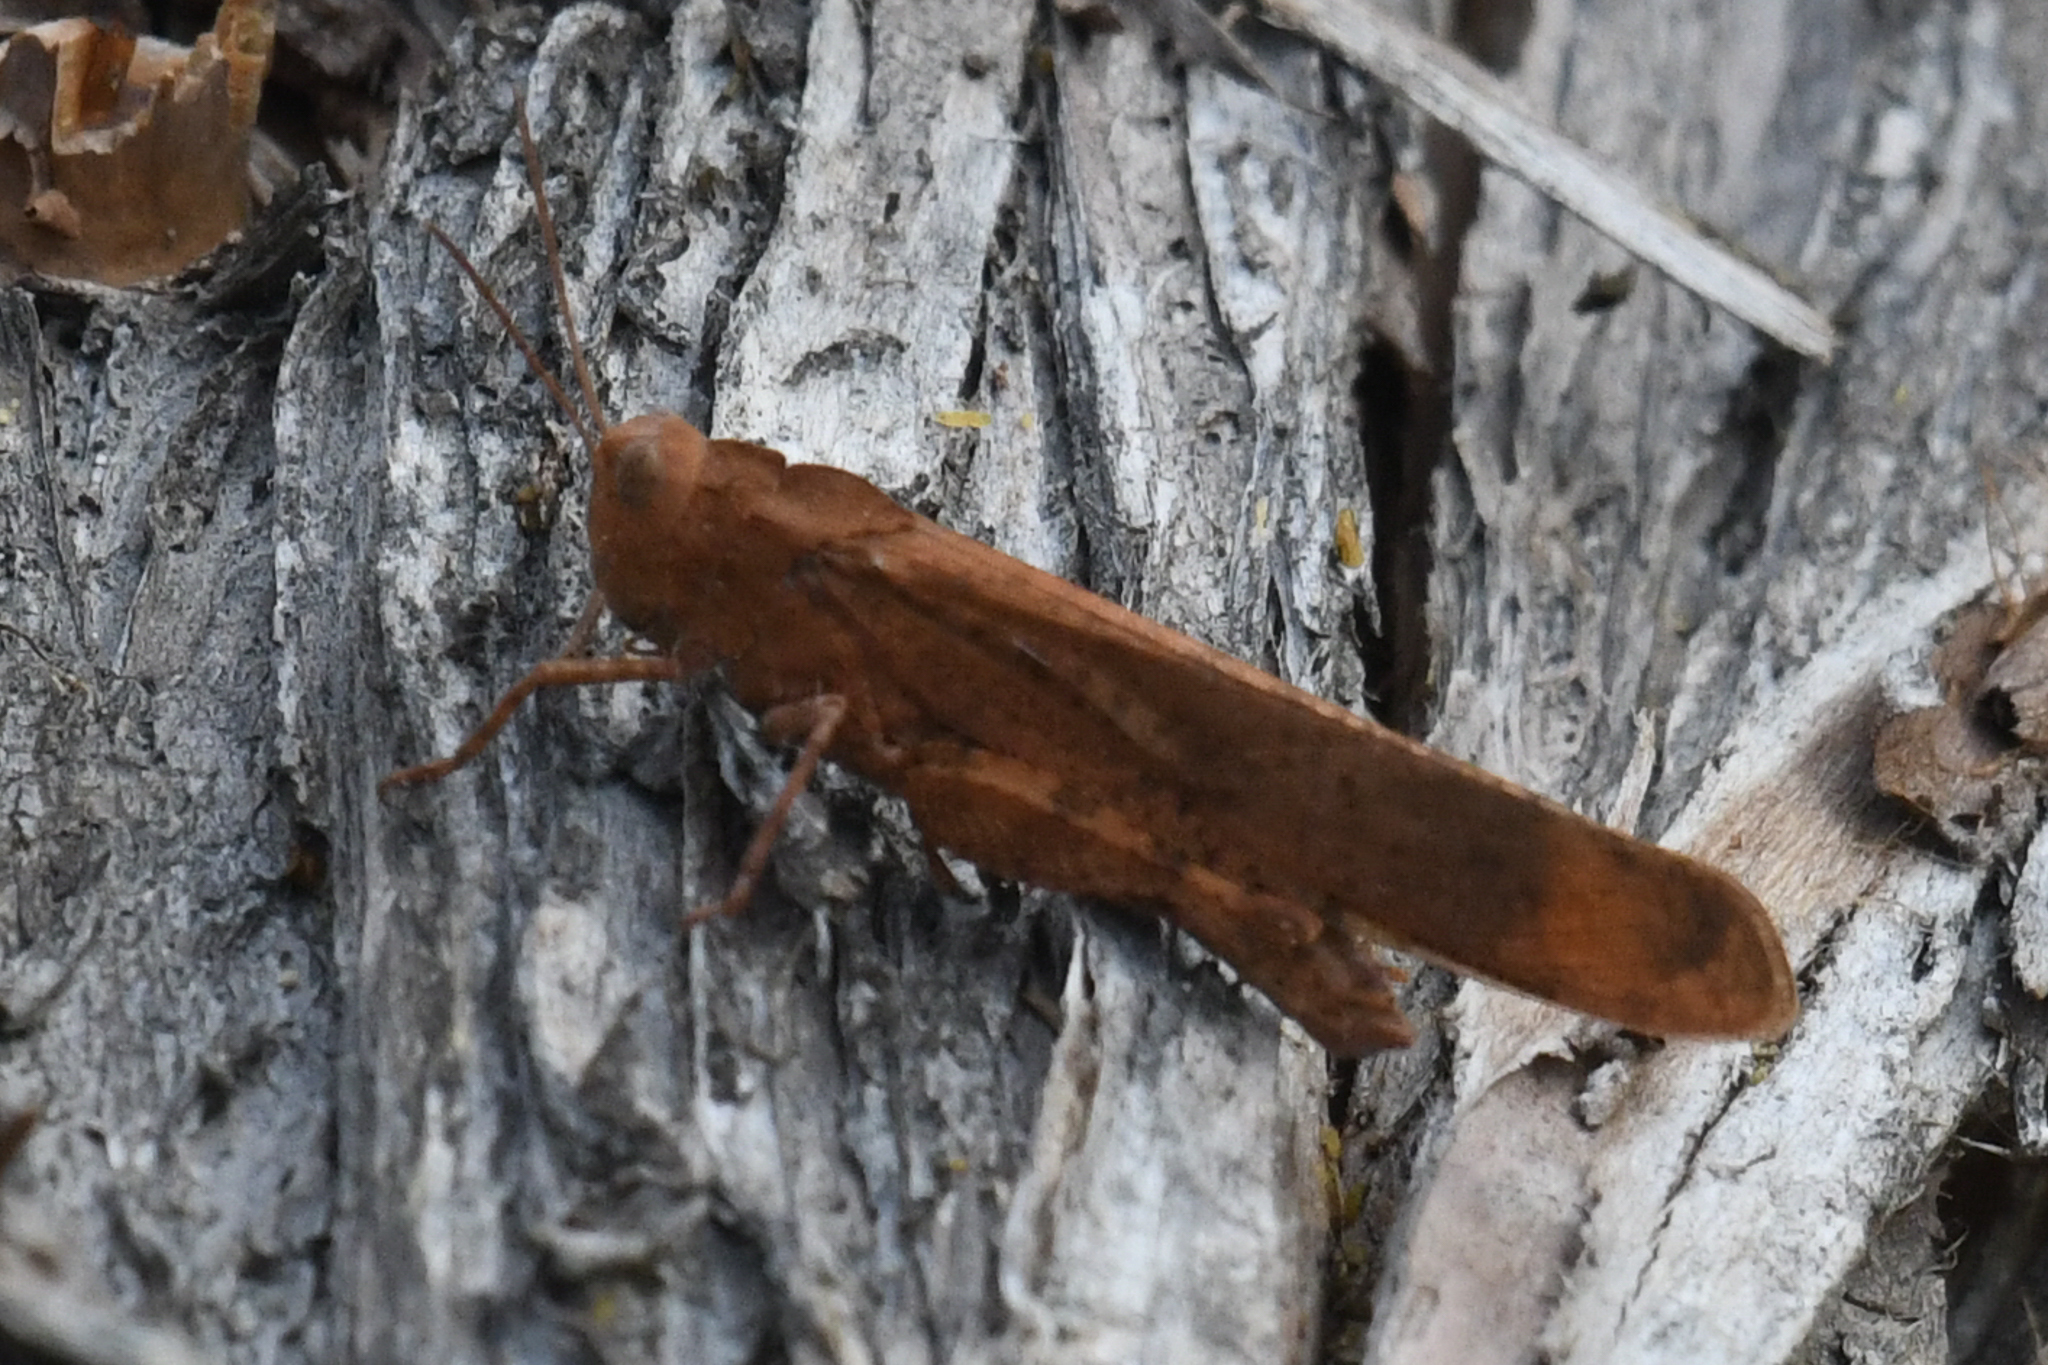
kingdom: Animalia
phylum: Arthropoda
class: Insecta
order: Orthoptera
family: Acrididae
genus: Dissosteira
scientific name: Dissosteira carolina
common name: Carolina grasshopper
